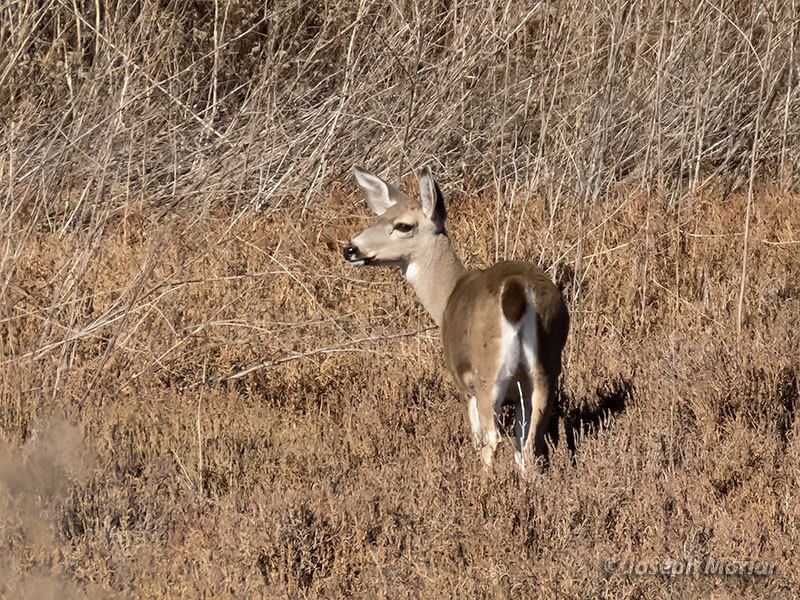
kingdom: Animalia
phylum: Chordata
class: Mammalia
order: Artiodactyla
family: Cervidae
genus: Odocoileus
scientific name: Odocoileus hemionus
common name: Mule deer
